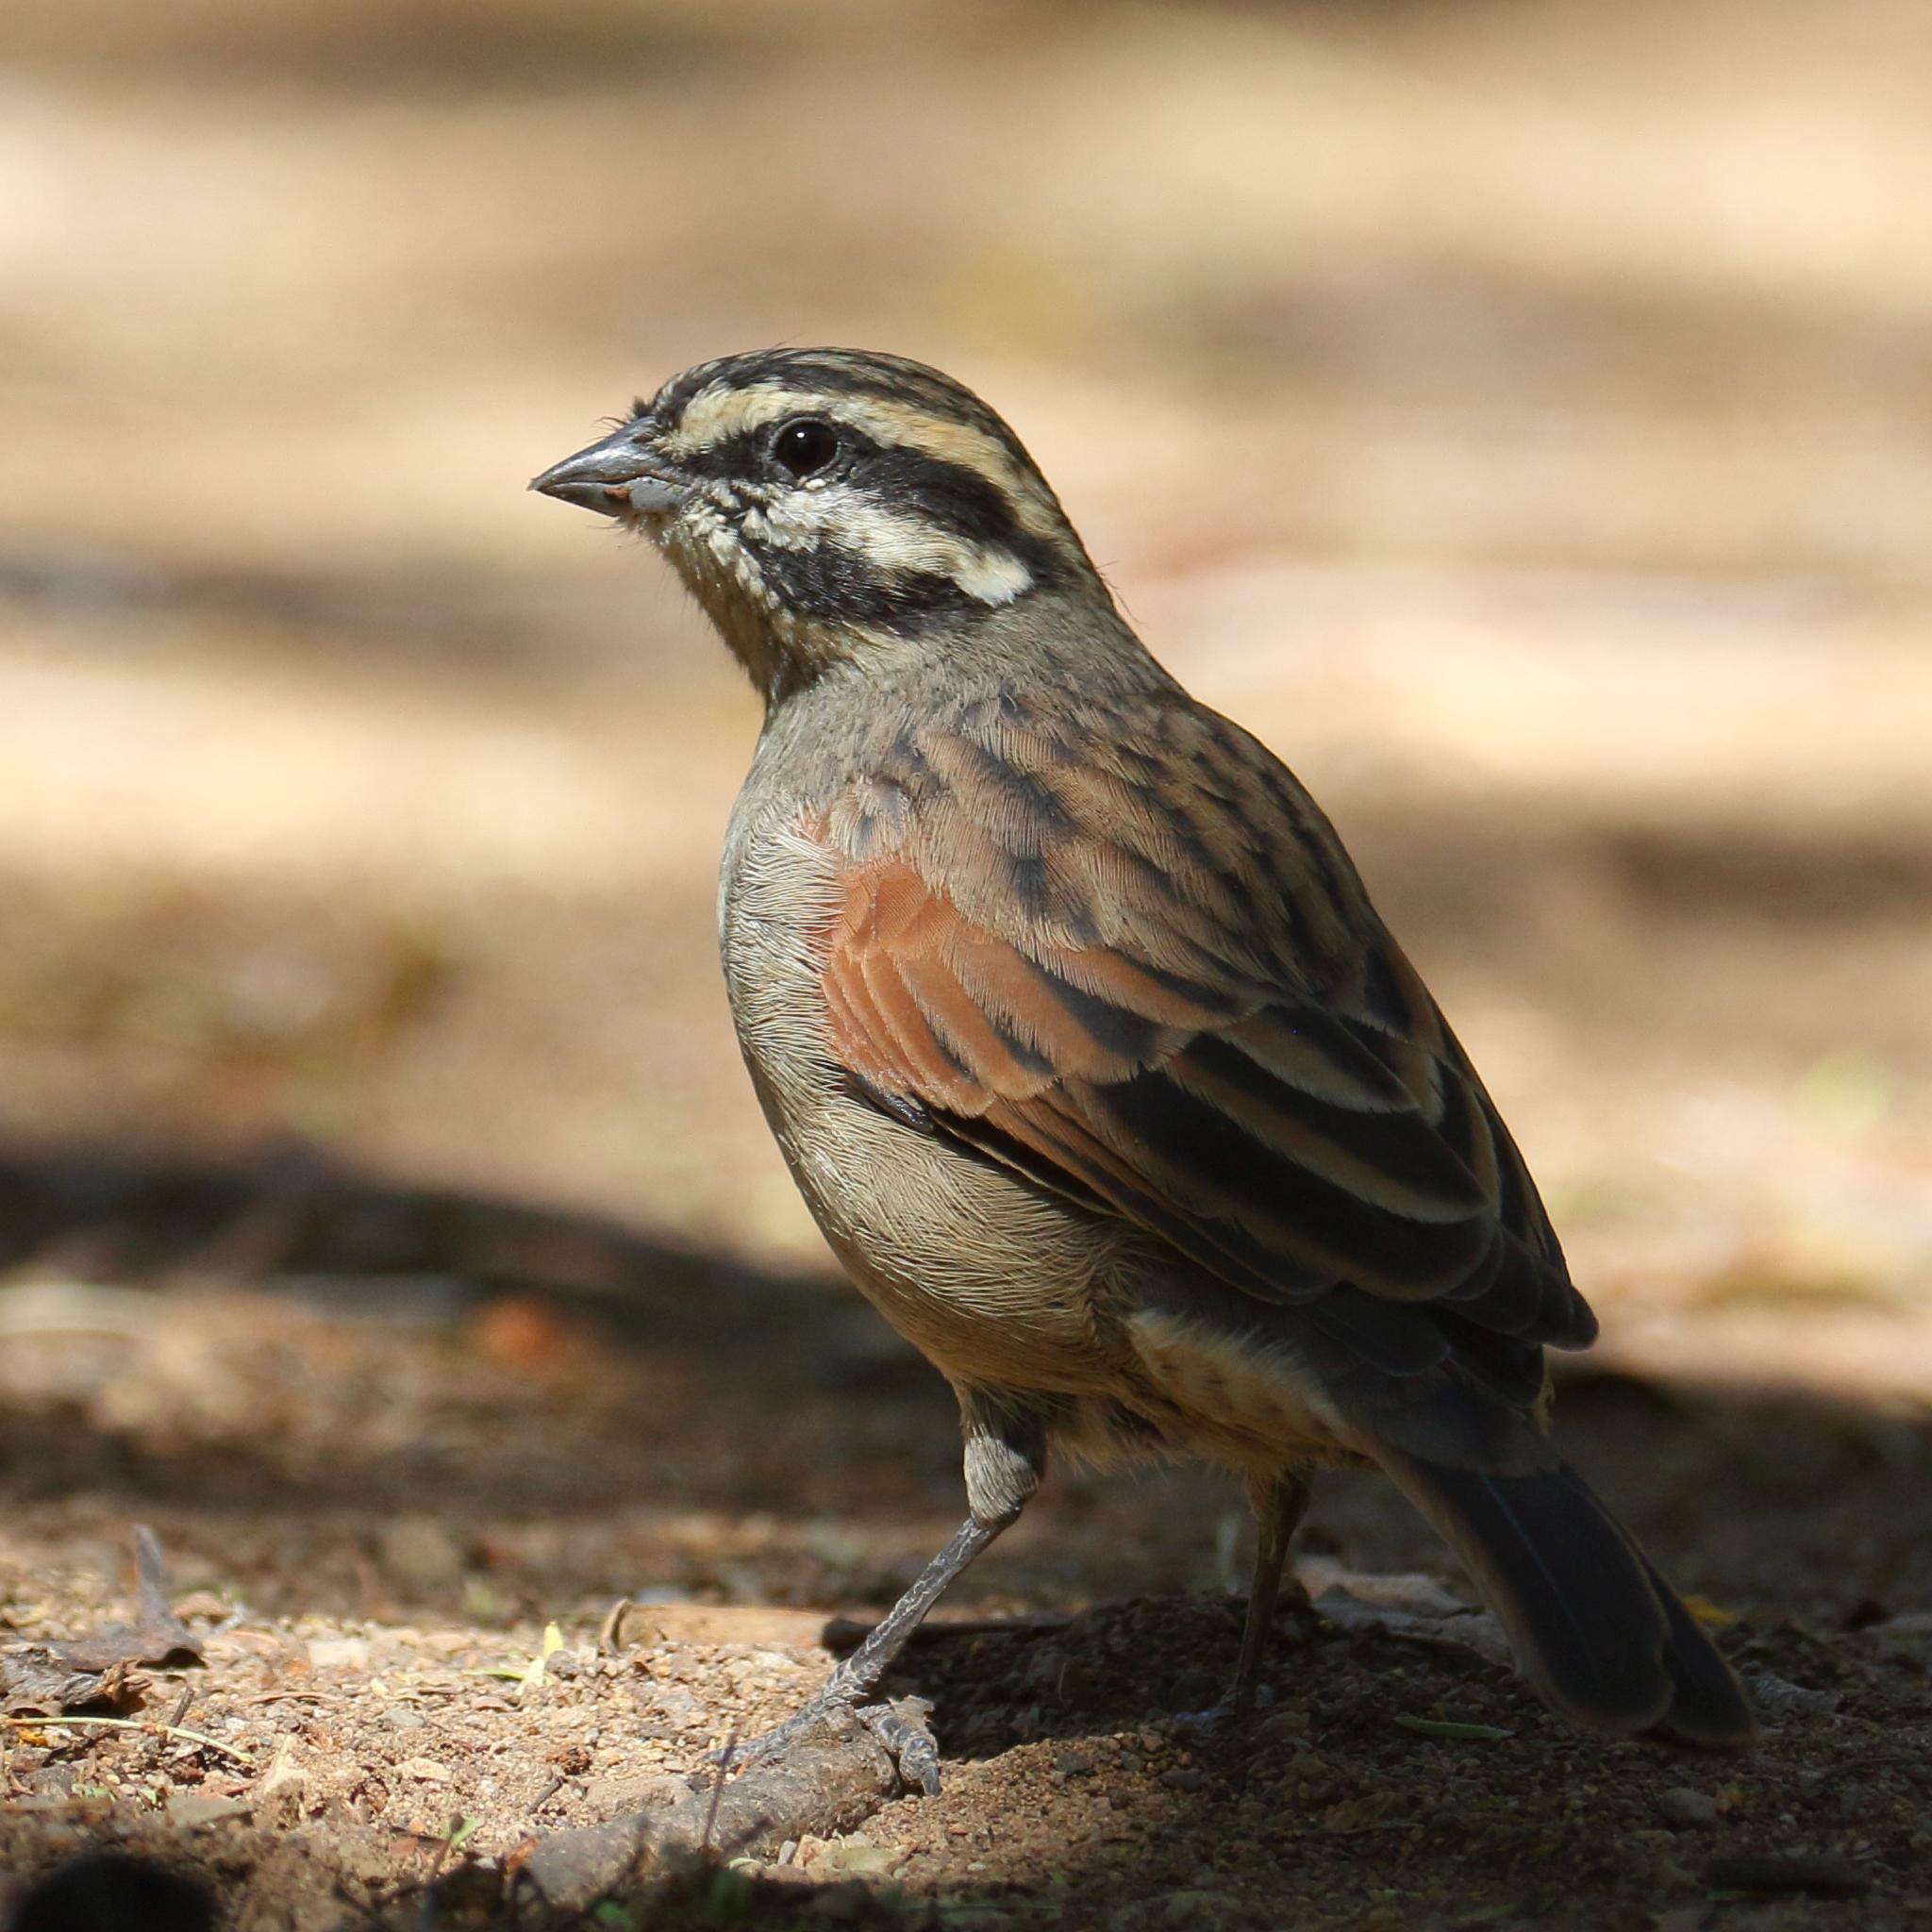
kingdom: Animalia
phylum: Chordata
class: Aves
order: Passeriformes
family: Emberizidae
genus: Emberiza
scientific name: Emberiza capensis
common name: Cape bunting
